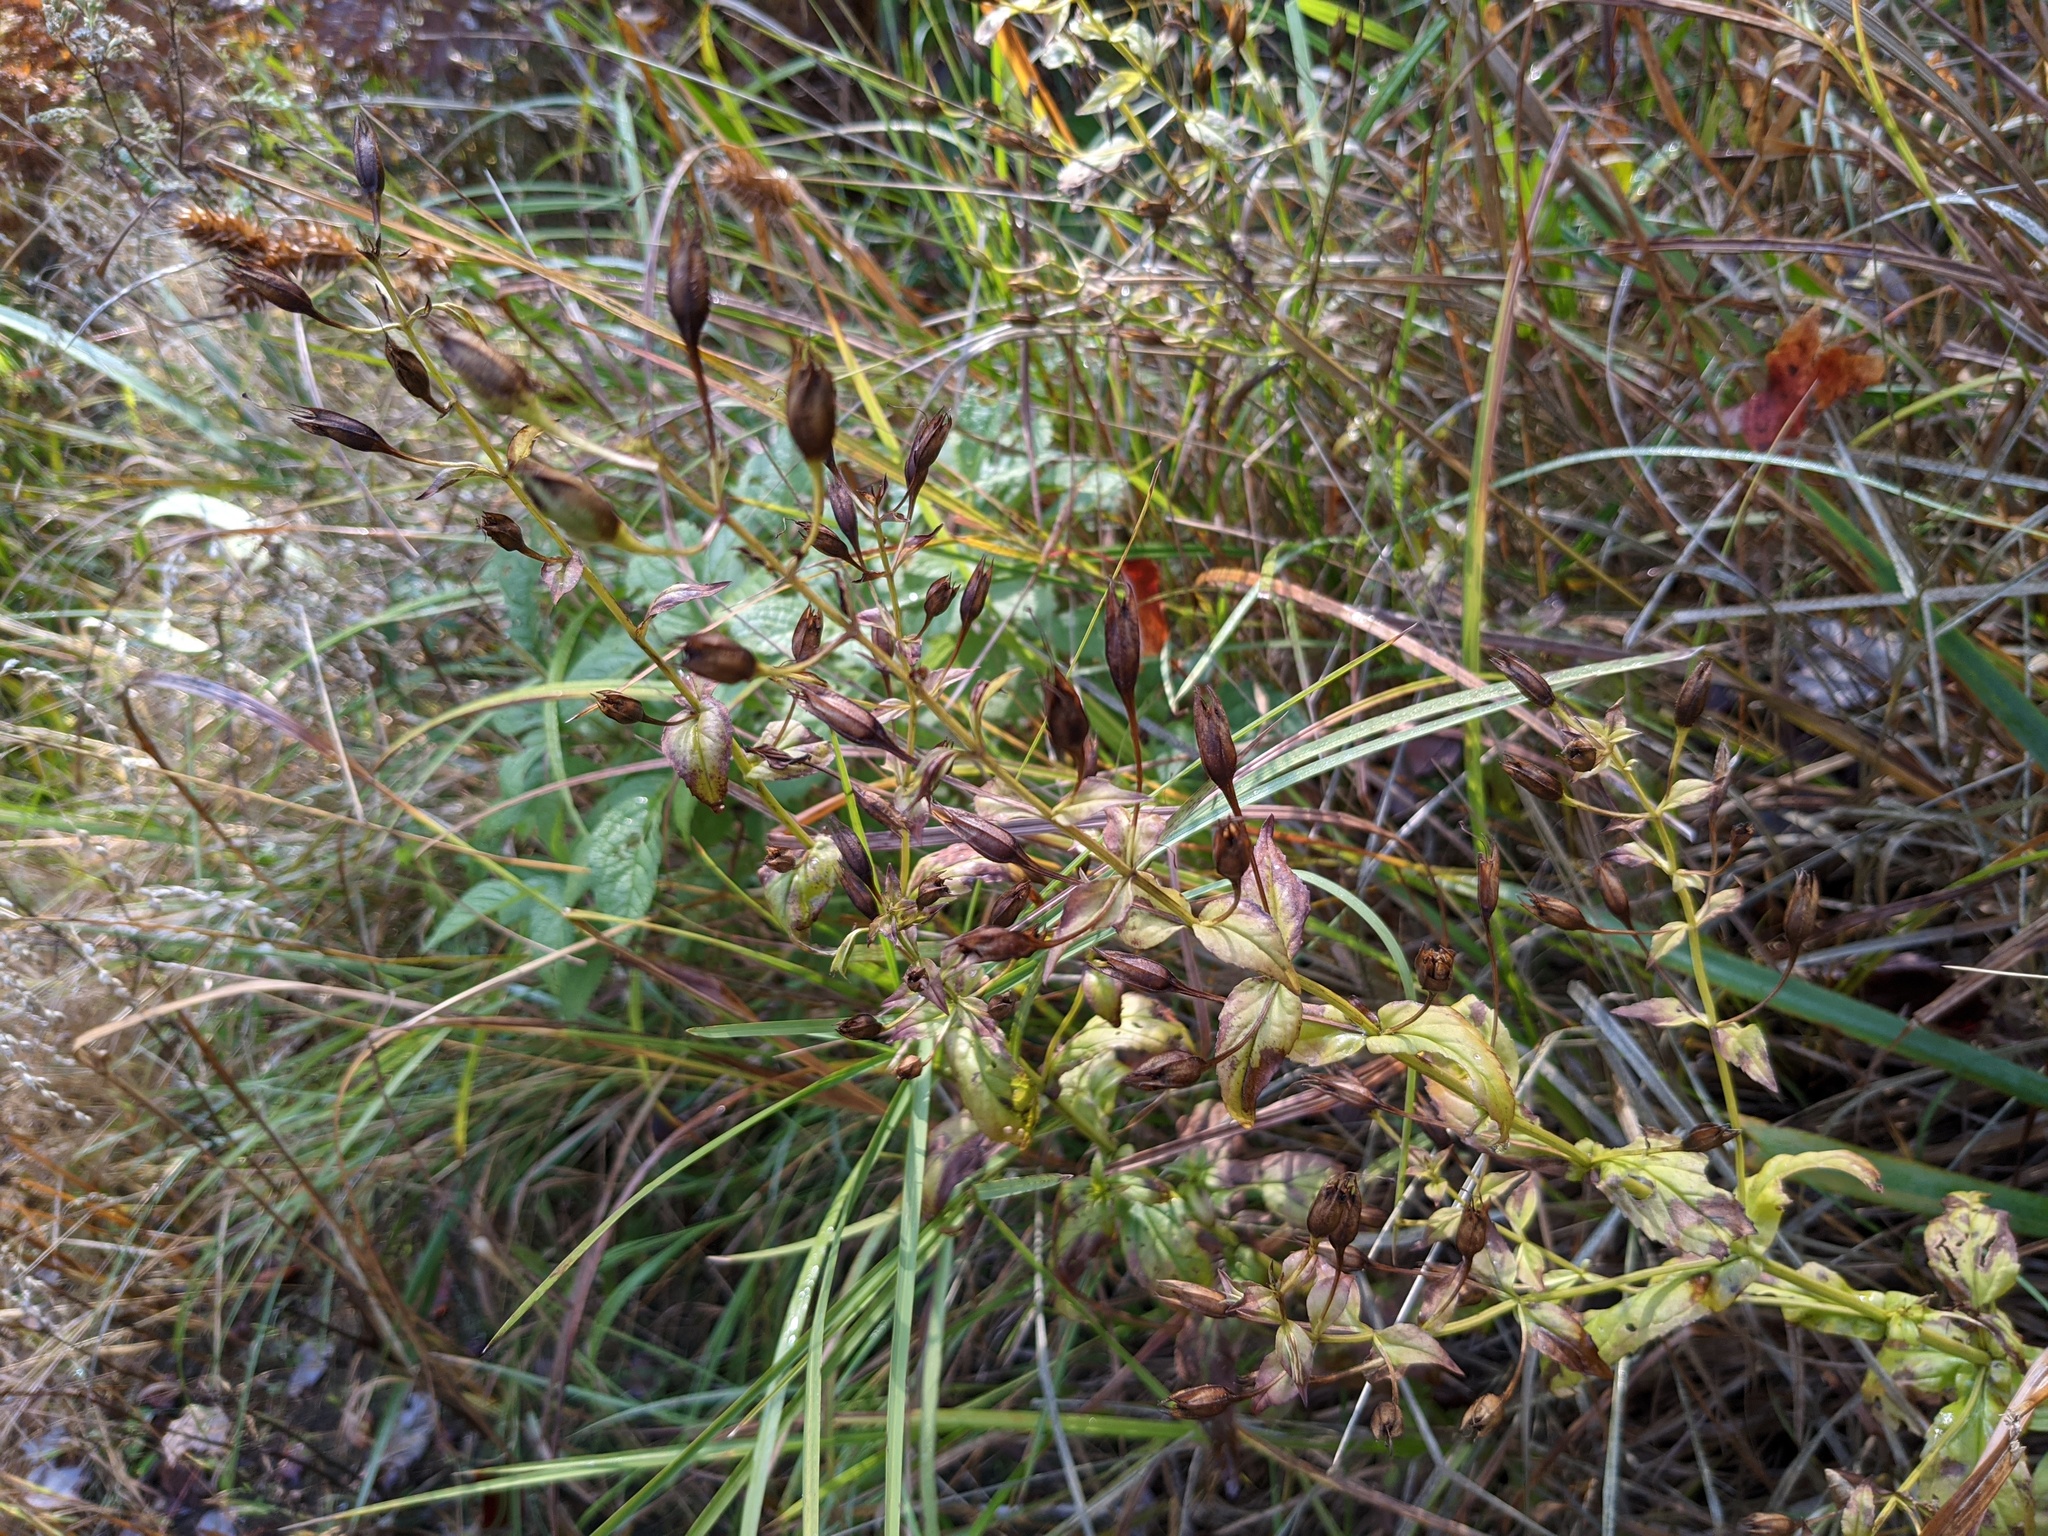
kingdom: Plantae
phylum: Tracheophyta
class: Magnoliopsida
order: Lamiales
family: Phrymaceae
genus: Mimulus
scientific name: Mimulus ringens
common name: Allegheny monkeyflower
